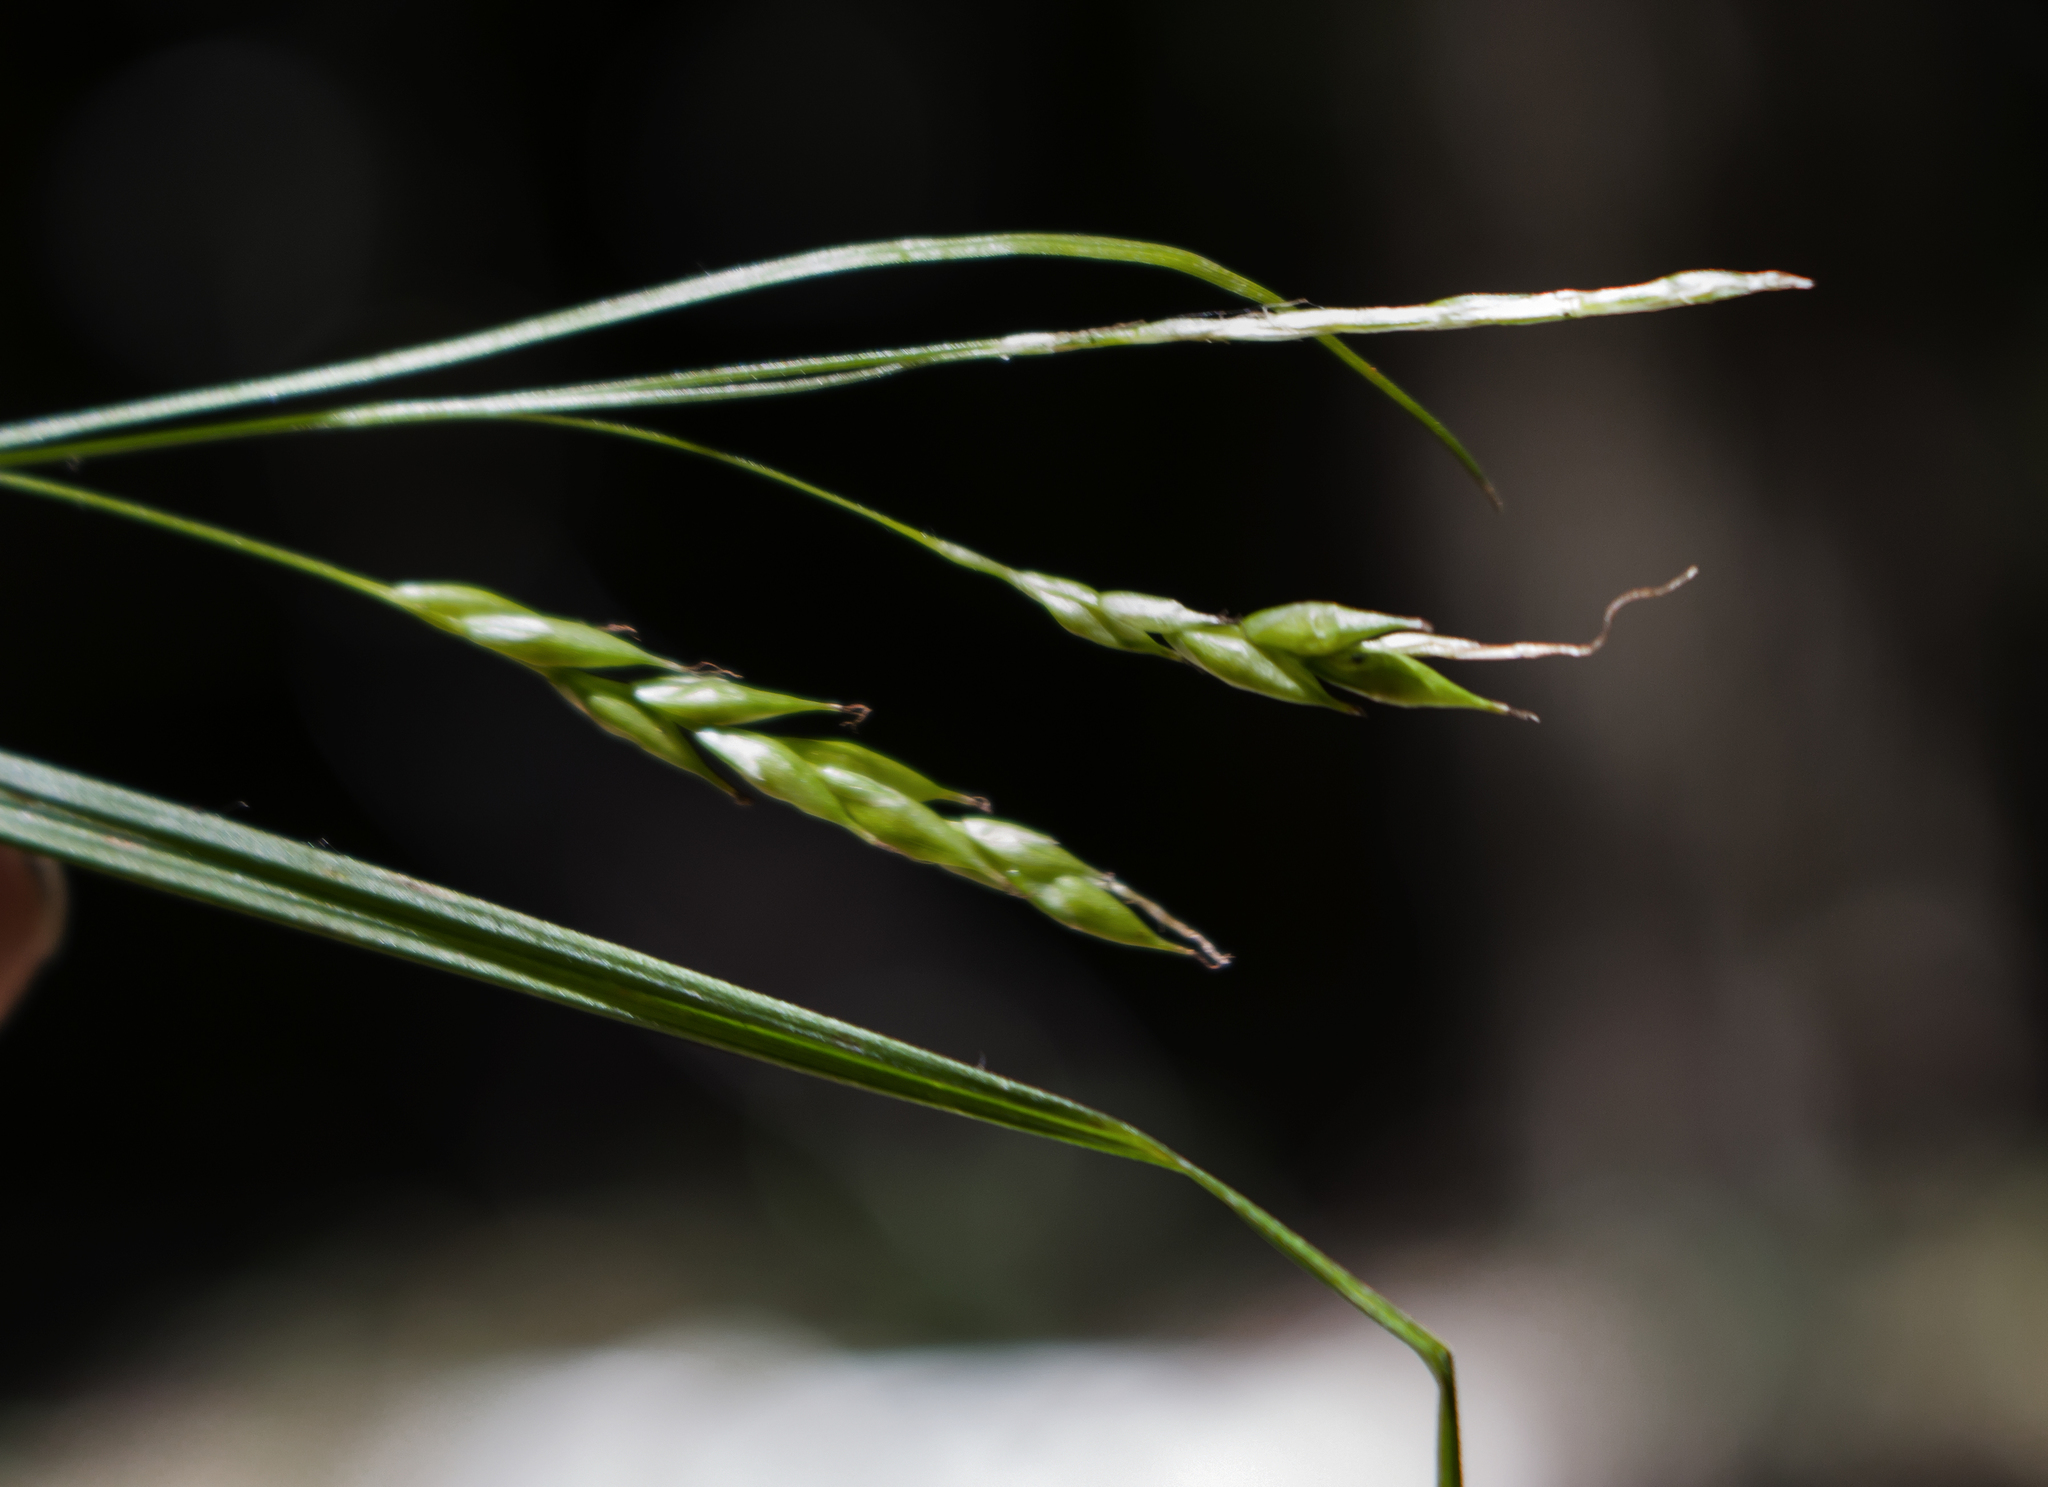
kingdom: Plantae
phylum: Tracheophyta
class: Liliopsida
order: Poales
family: Cyperaceae
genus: Carex
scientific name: Carex debilis
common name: White-edge sedge
